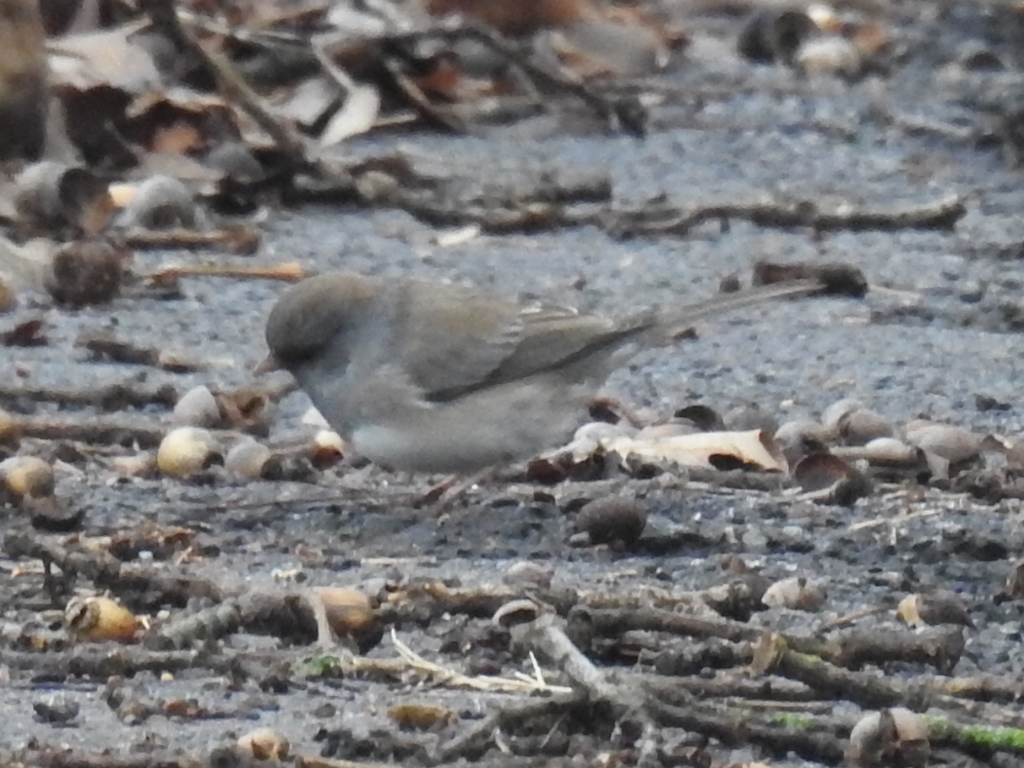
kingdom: Animalia
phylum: Chordata
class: Aves
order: Passeriformes
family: Passerellidae
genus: Junco
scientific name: Junco hyemalis
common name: Dark-eyed junco
